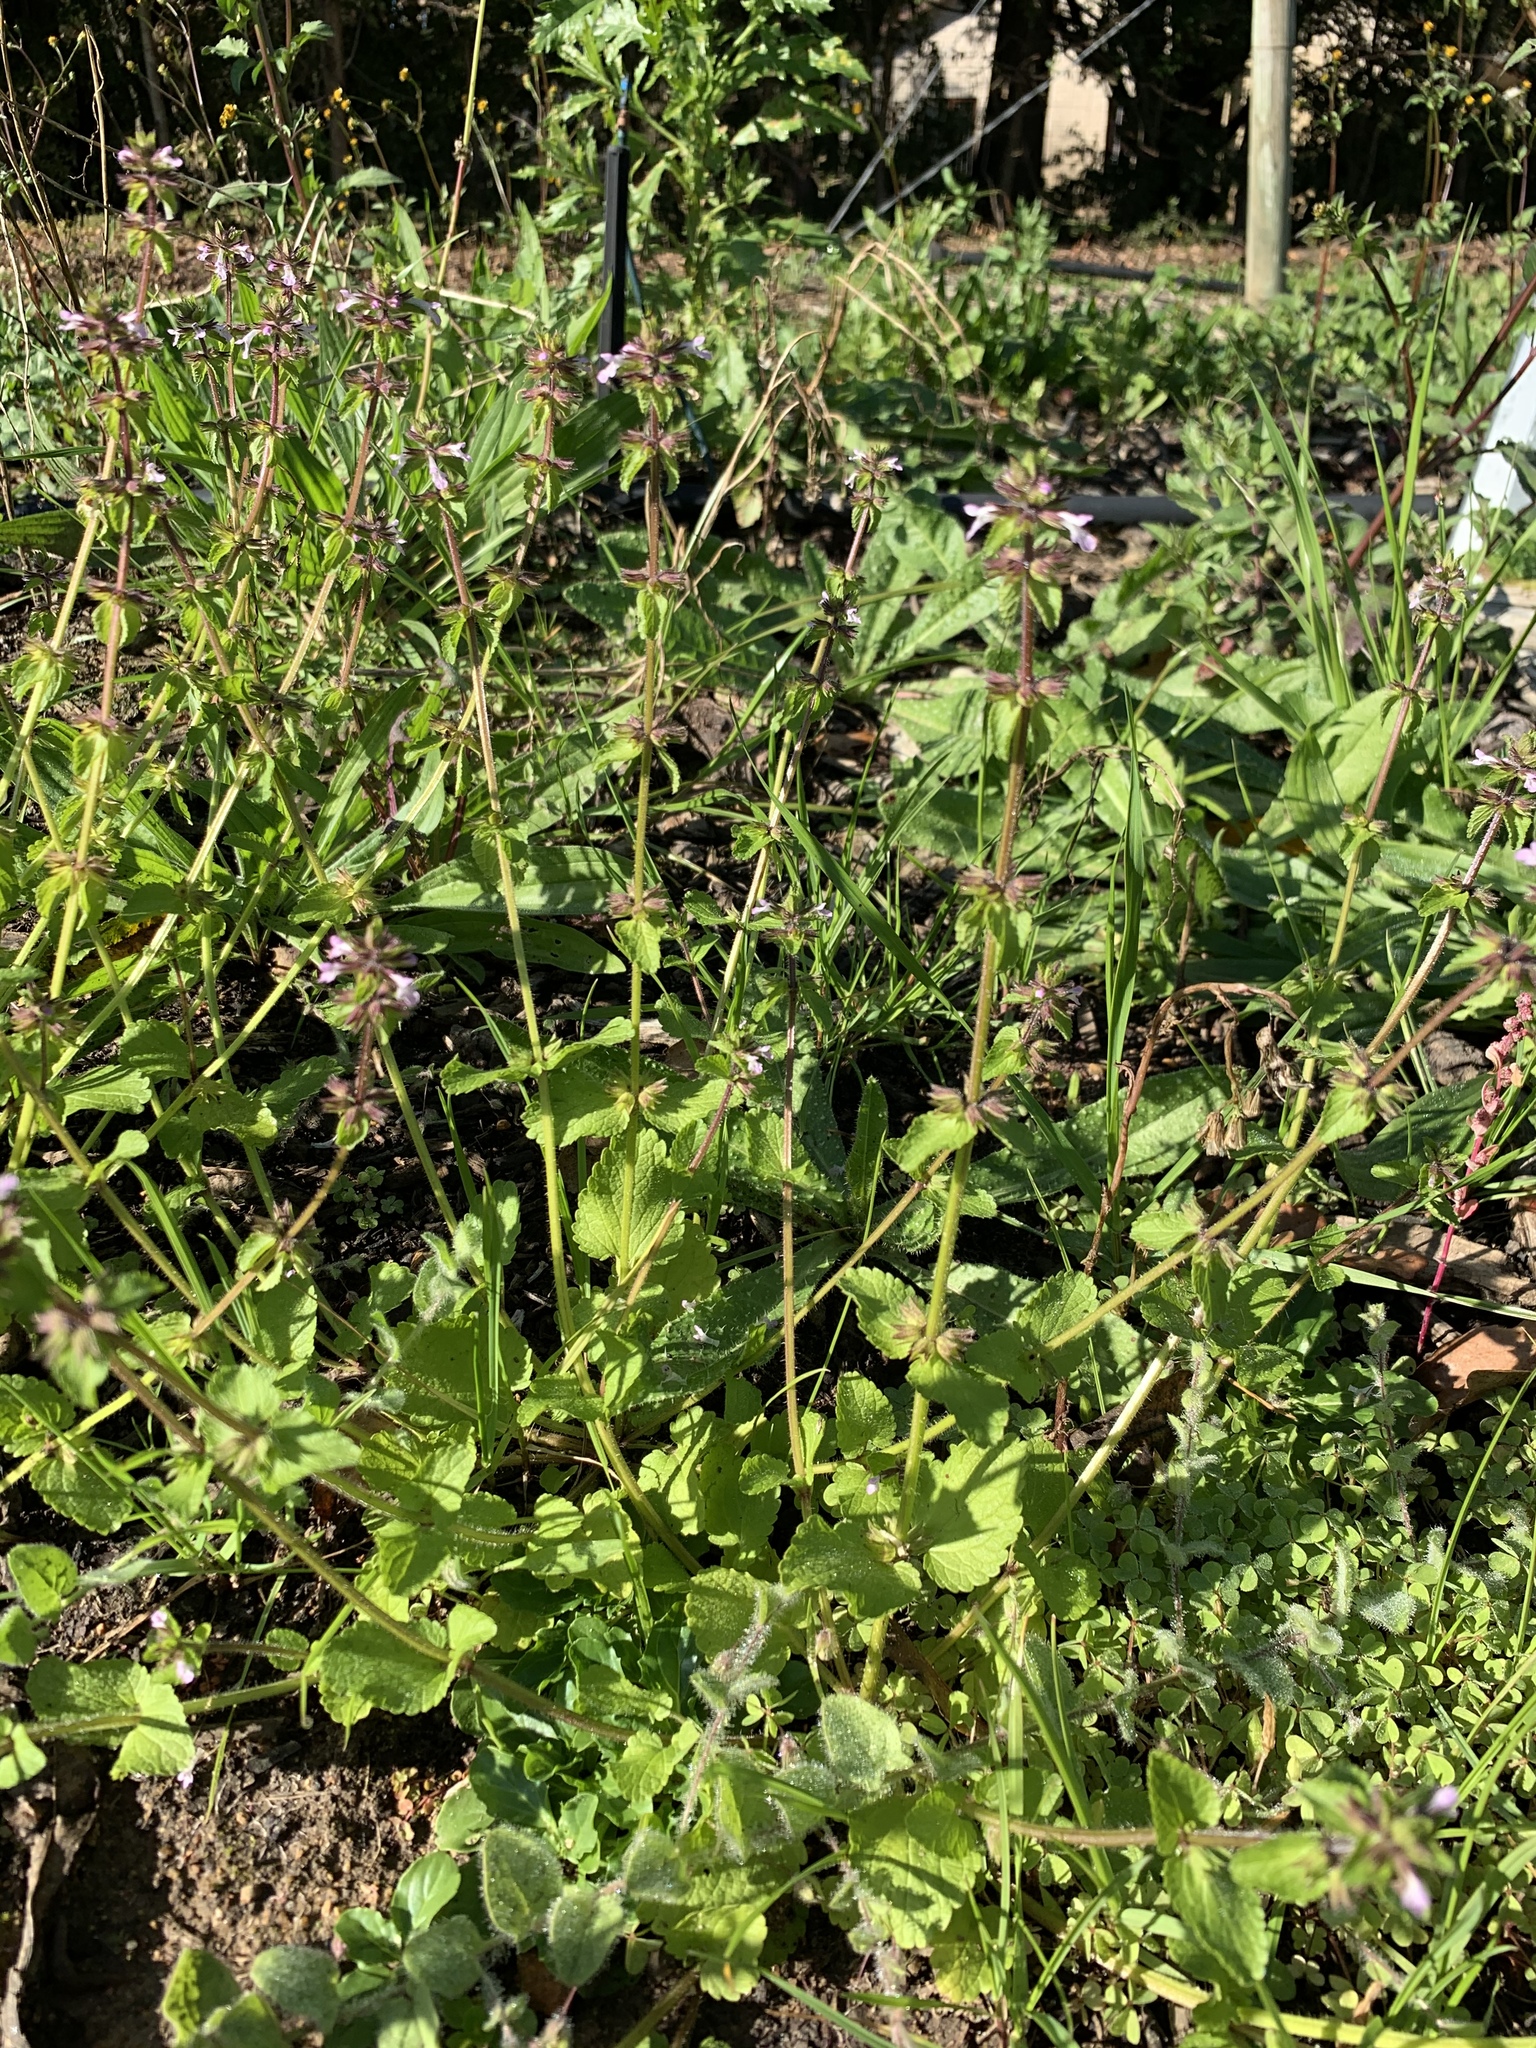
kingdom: Plantae
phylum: Tracheophyta
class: Magnoliopsida
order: Lamiales
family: Lamiaceae
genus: Stachys
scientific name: Stachys arvensis
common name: Field woundwort
